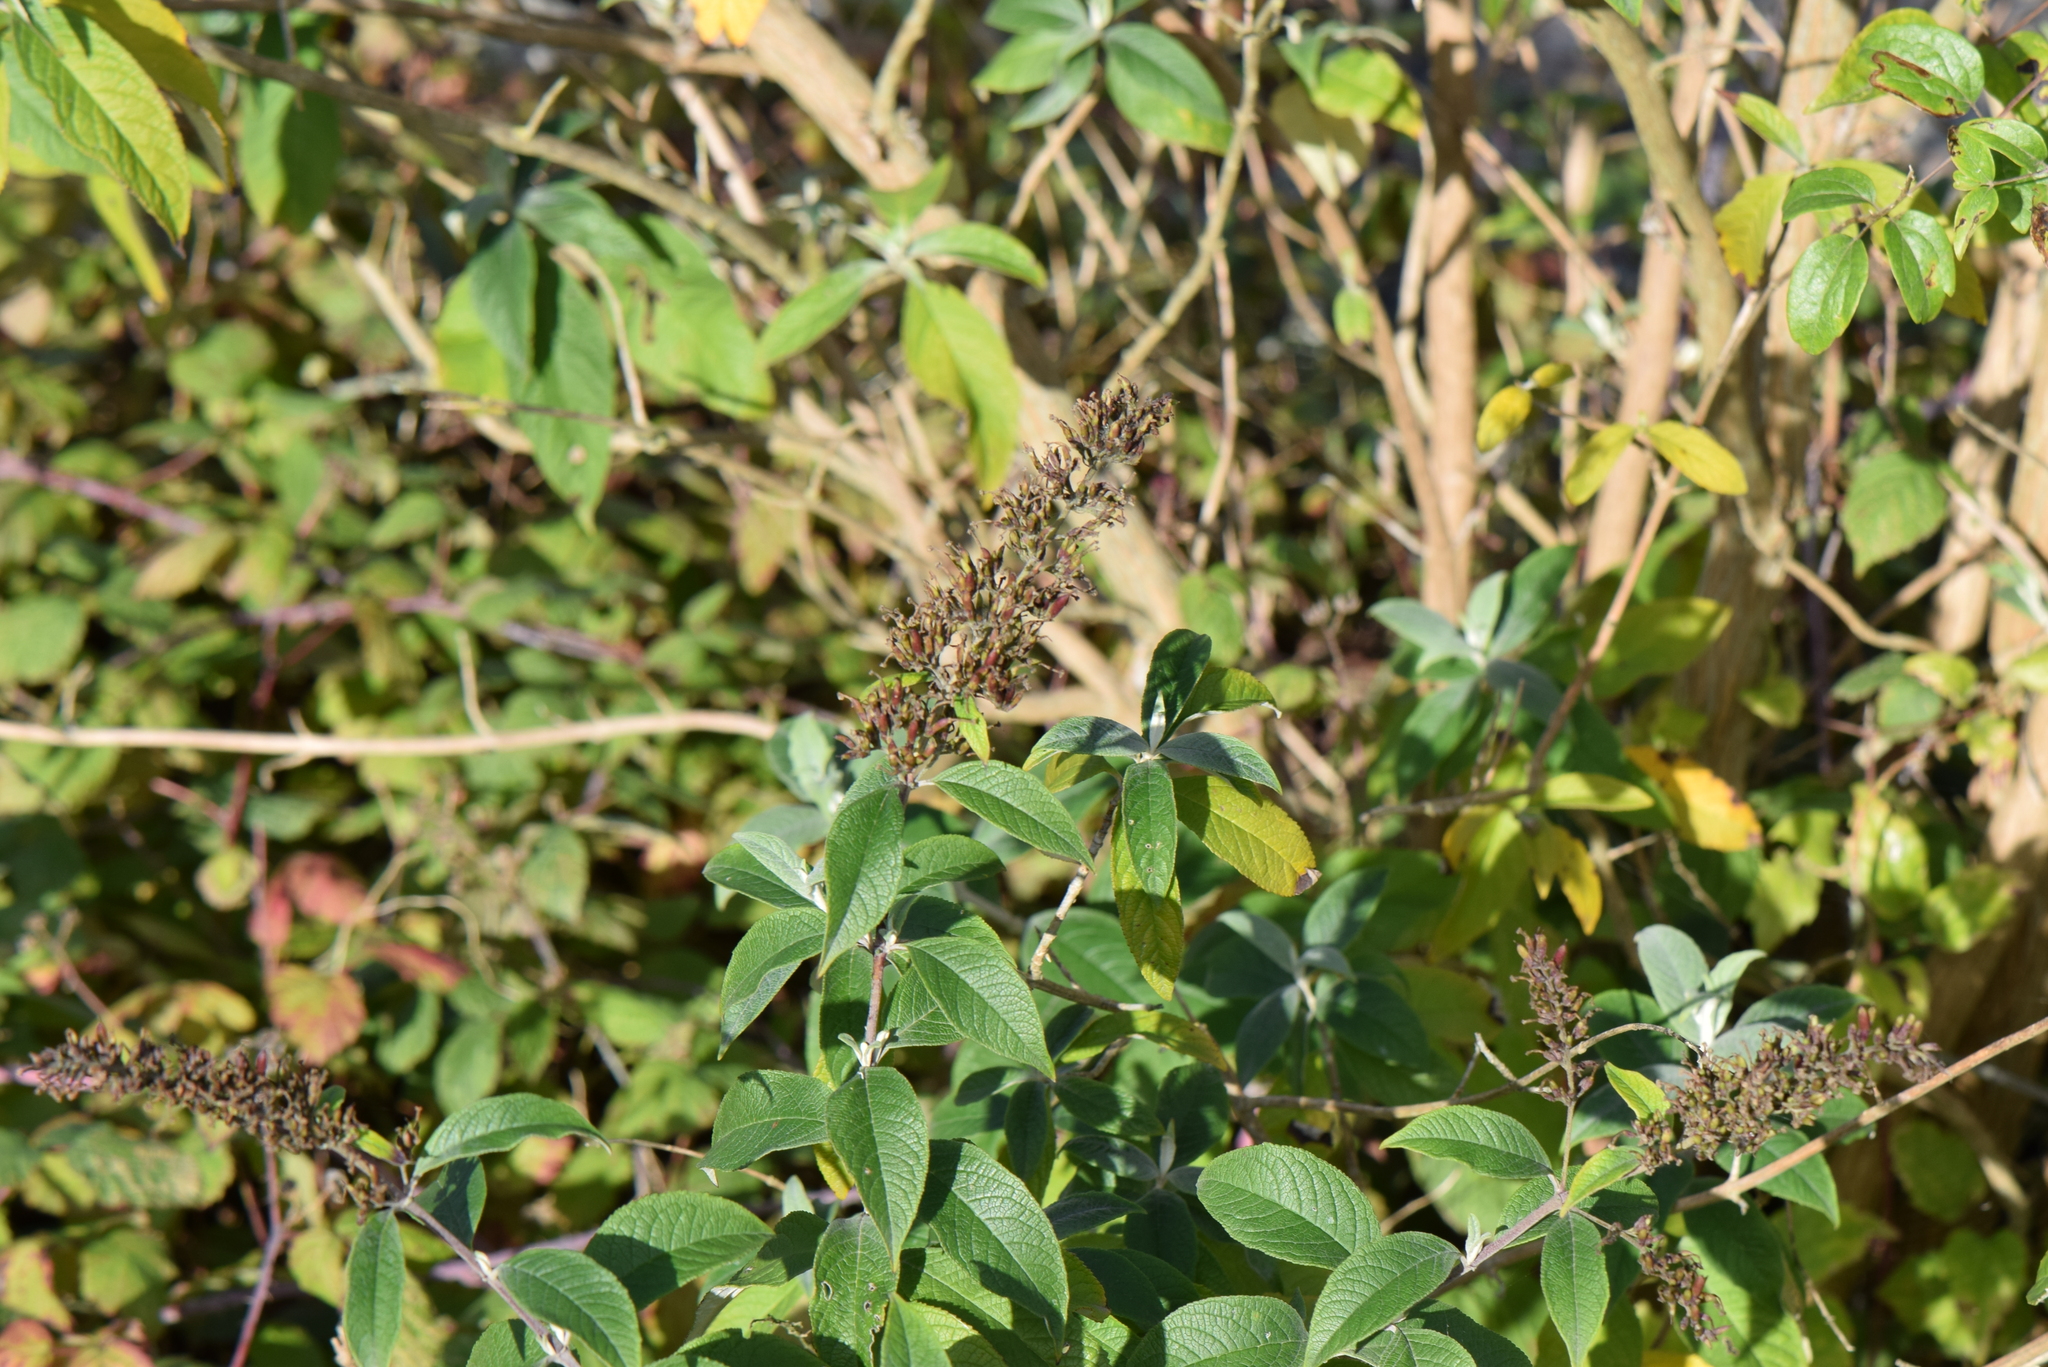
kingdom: Plantae
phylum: Tracheophyta
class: Magnoliopsida
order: Lamiales
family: Scrophulariaceae
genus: Buddleja
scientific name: Buddleja davidii
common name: Butterfly-bush
